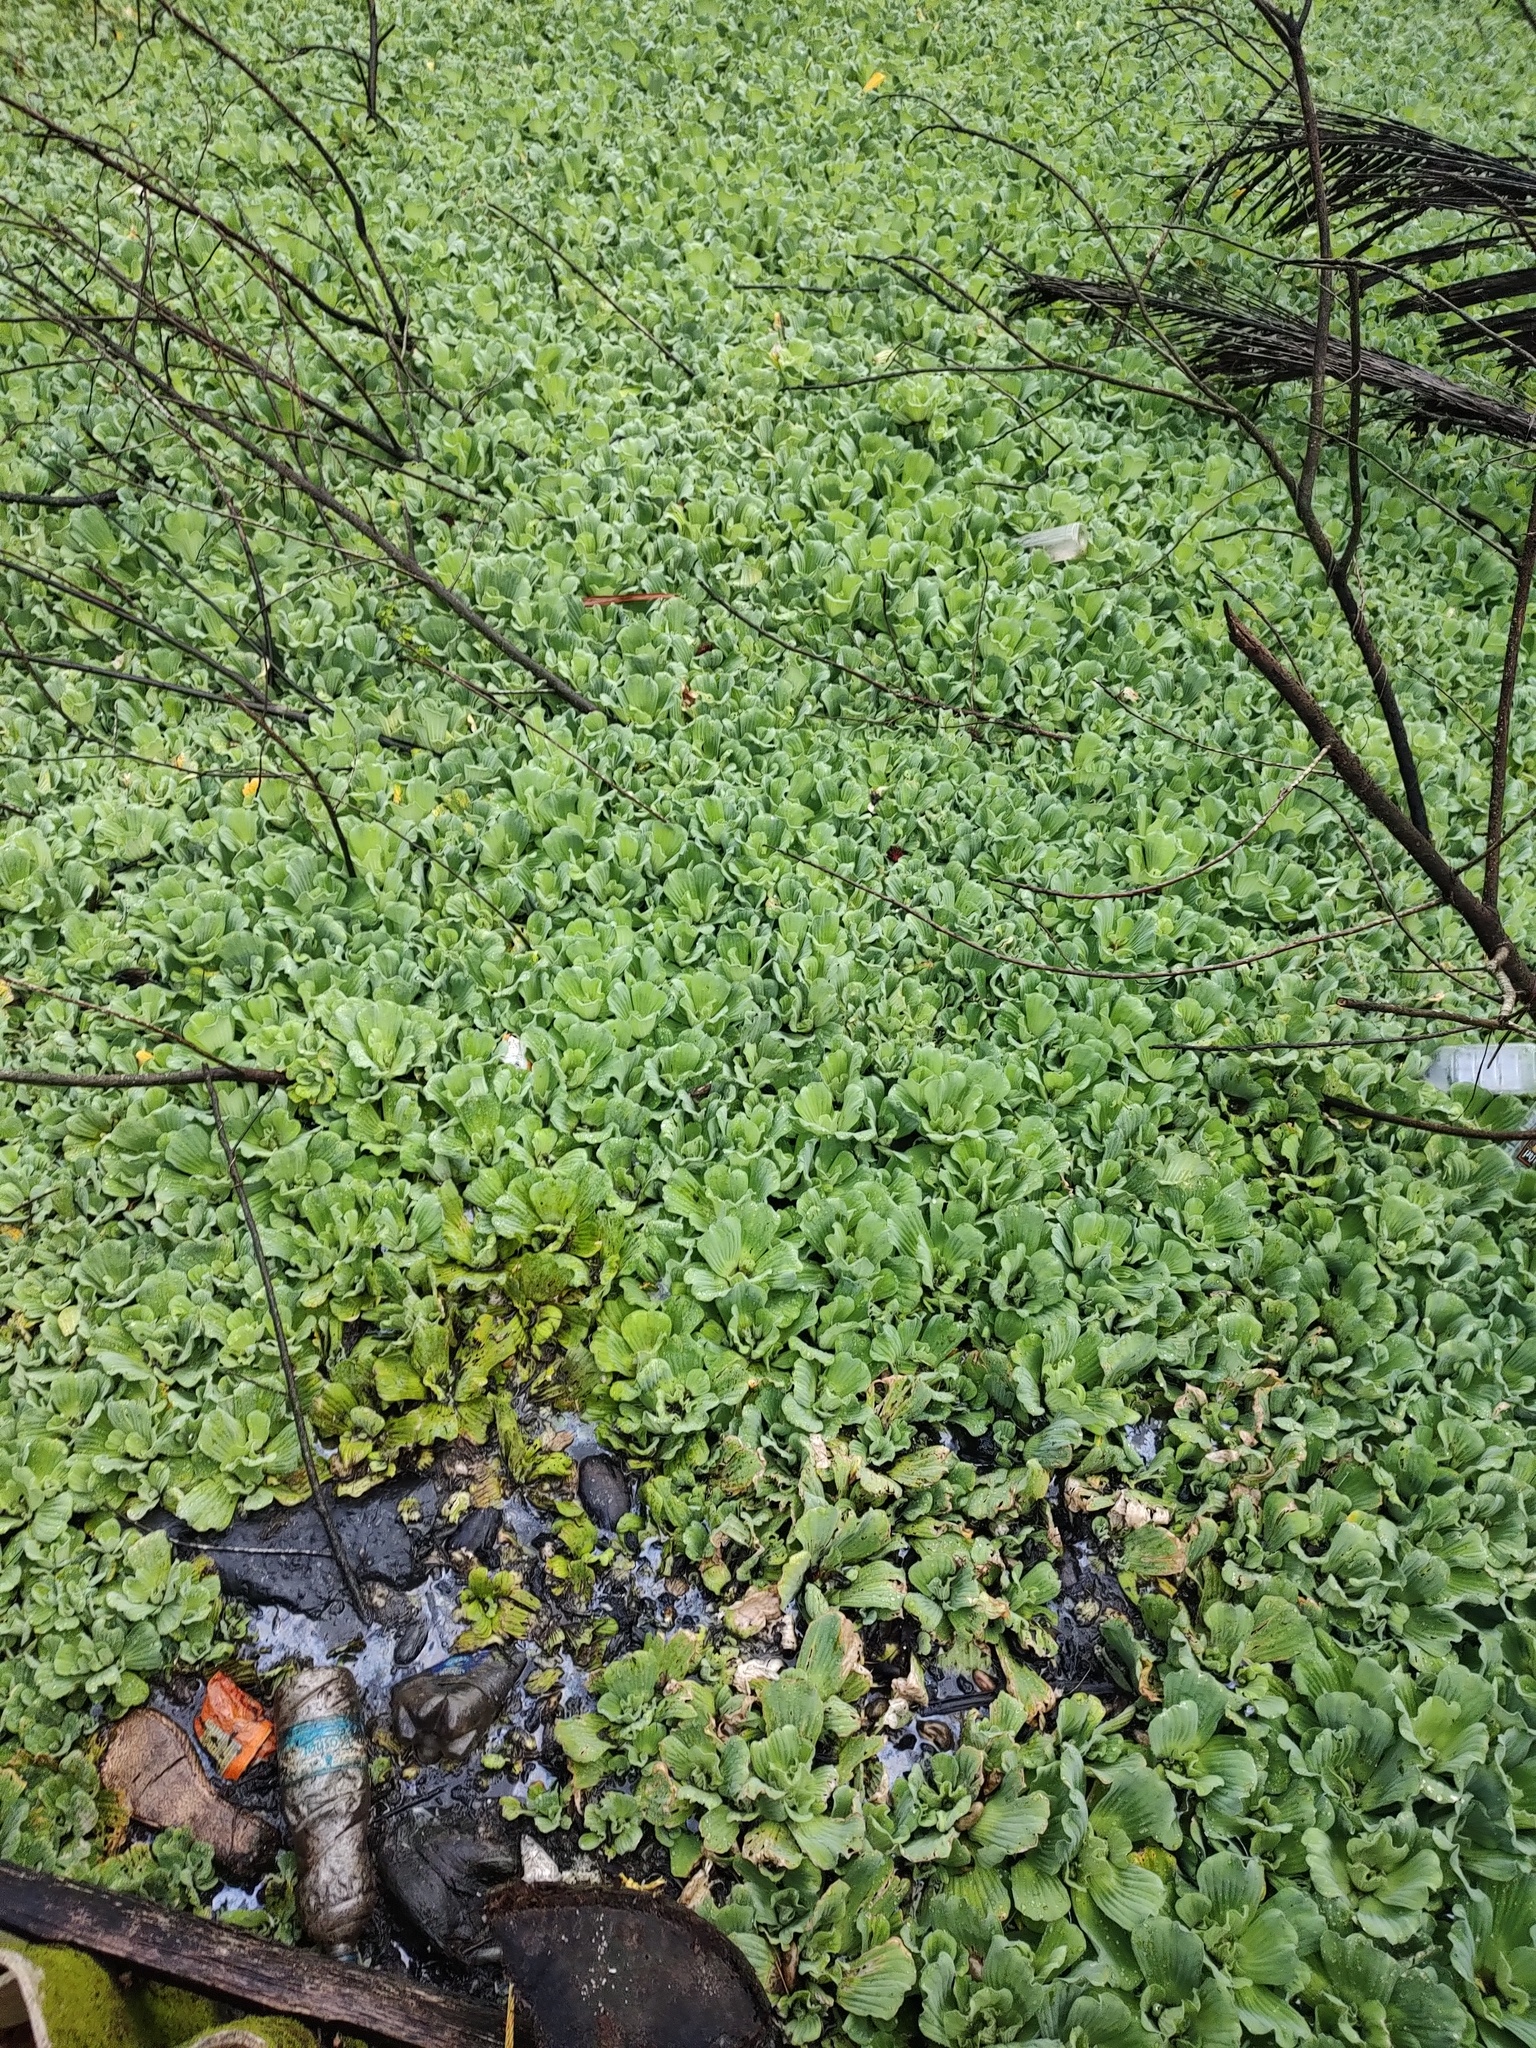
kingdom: Plantae
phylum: Tracheophyta
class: Liliopsida
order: Alismatales
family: Araceae
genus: Pistia
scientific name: Pistia stratiotes
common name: Water lettuce
